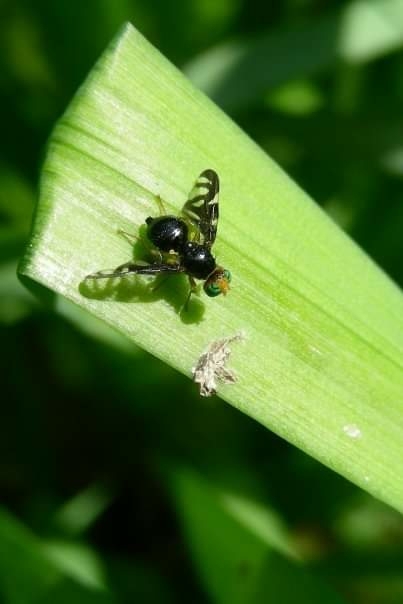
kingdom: Animalia
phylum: Arthropoda
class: Insecta
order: Diptera
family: Tephritidae
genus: Euleia
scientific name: Euleia heraclei
